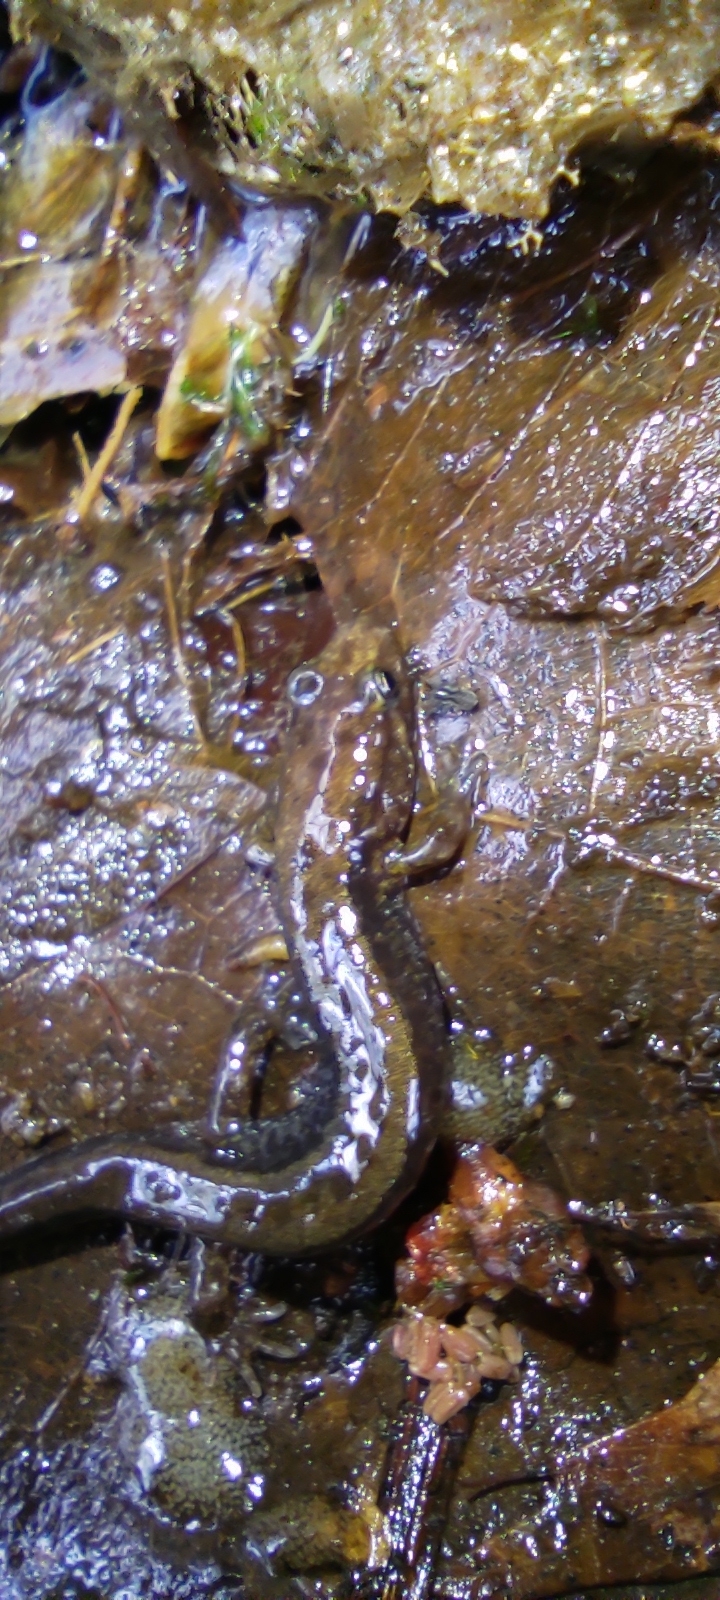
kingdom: Animalia
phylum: Chordata
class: Amphibia
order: Caudata
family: Plethodontidae
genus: Desmognathus
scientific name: Desmognathus ochrophaeus
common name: Allegheny mountain dusky salamander
